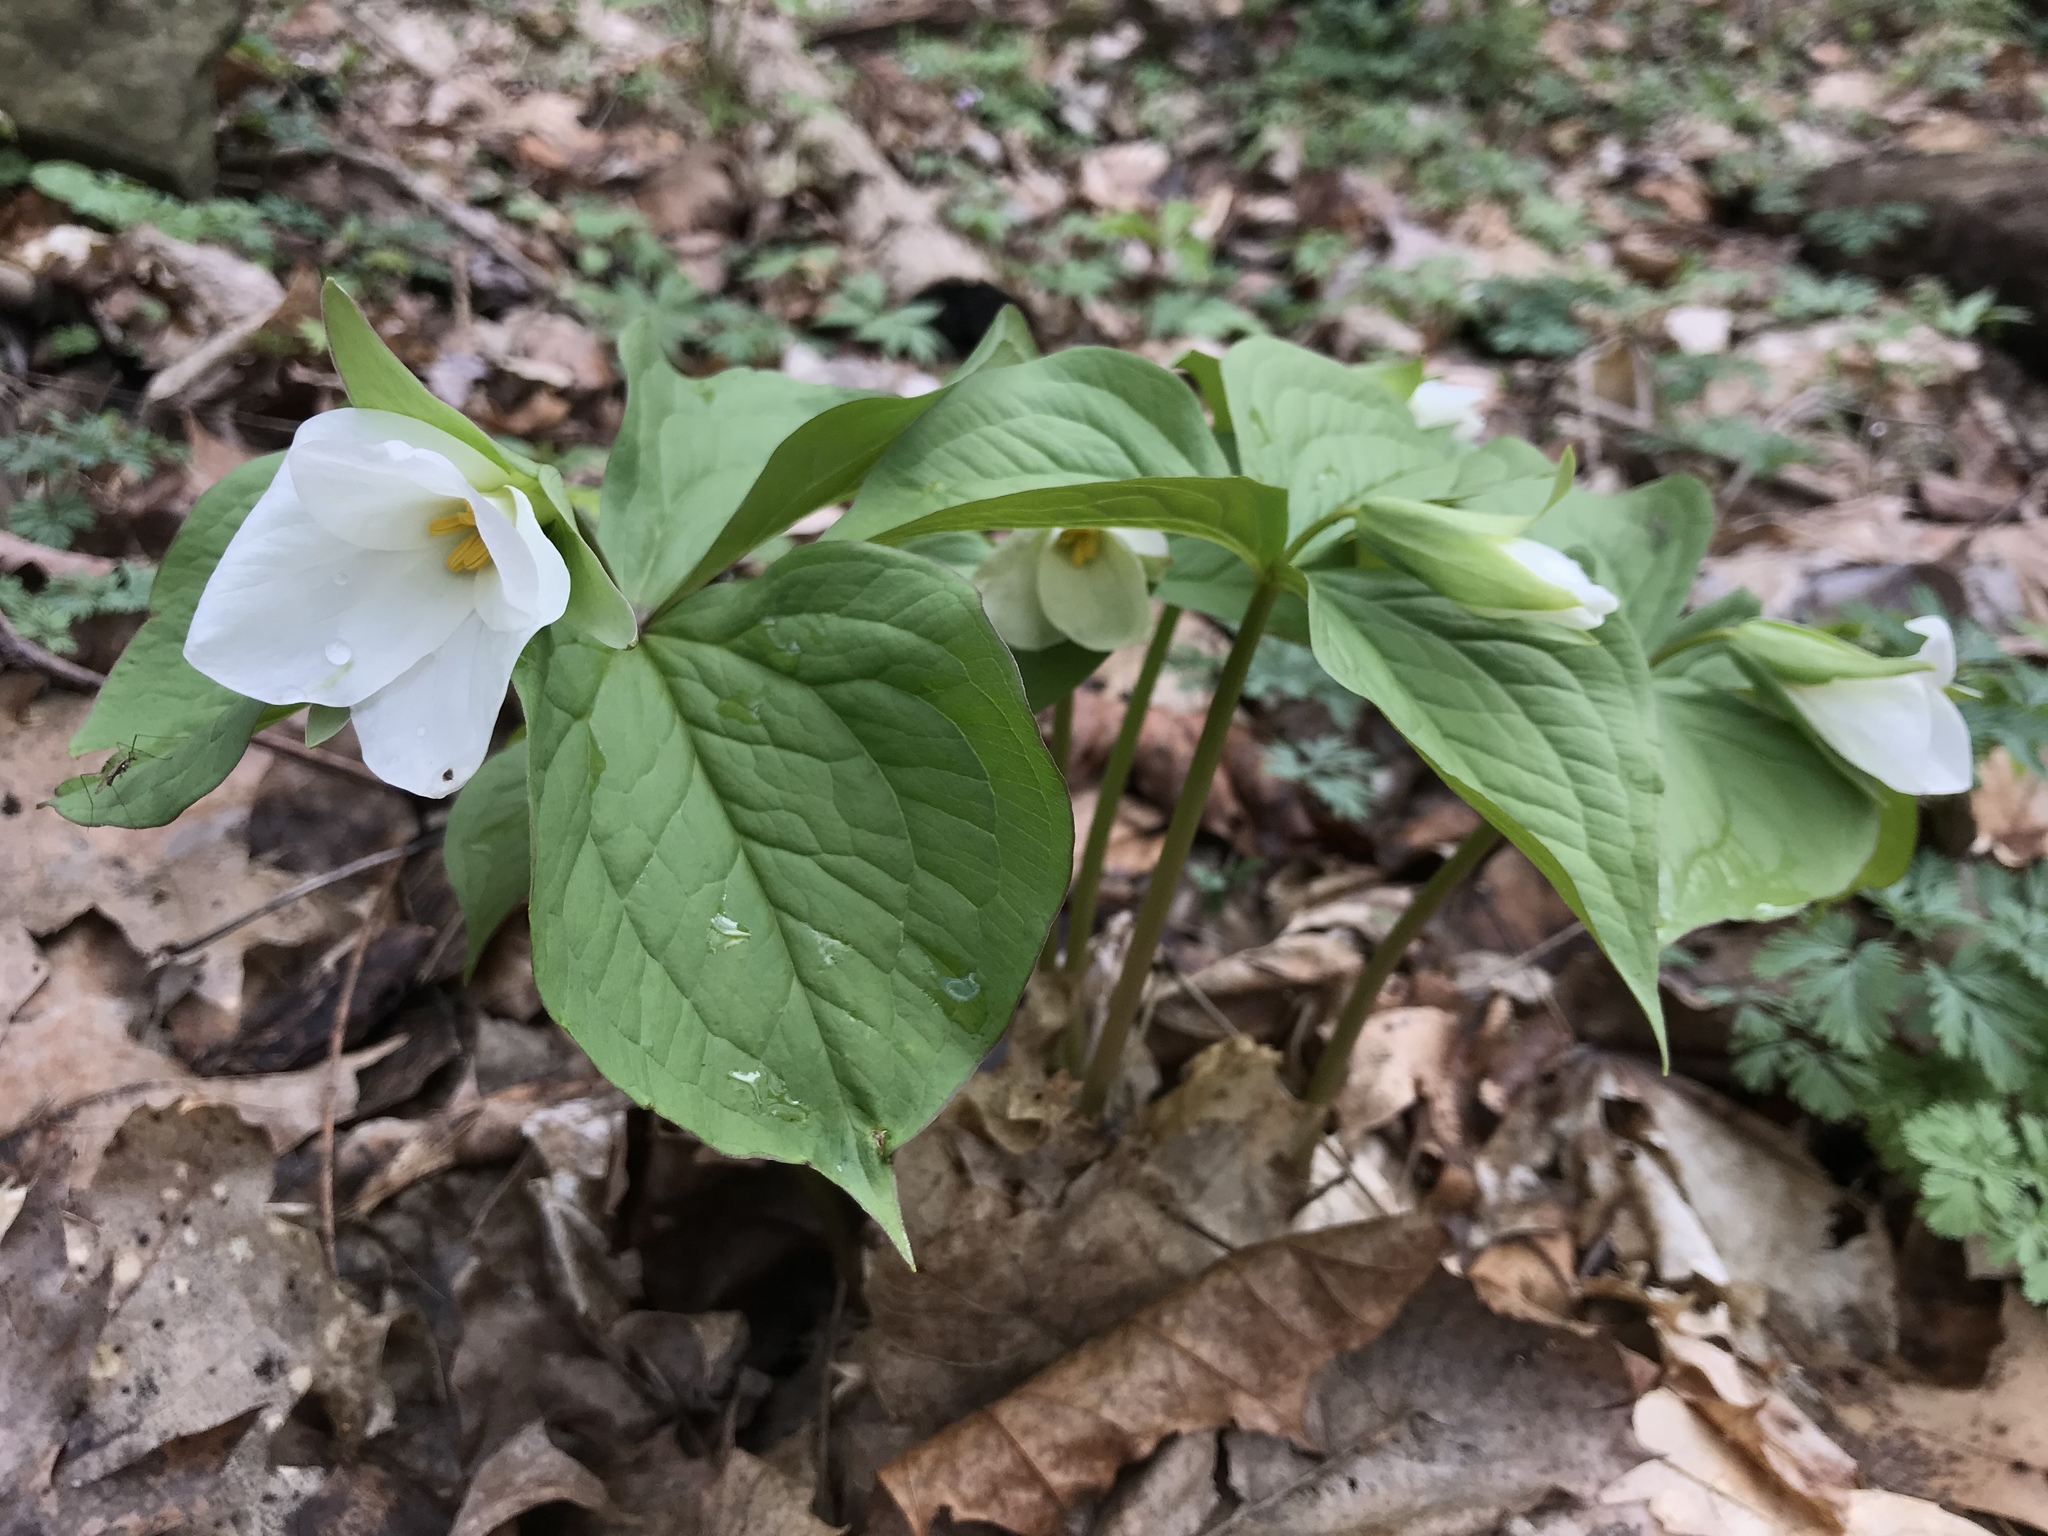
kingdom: Plantae
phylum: Tracheophyta
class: Liliopsida
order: Liliales
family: Melanthiaceae
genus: Trillium
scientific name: Trillium grandiflorum
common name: Great white trillium
